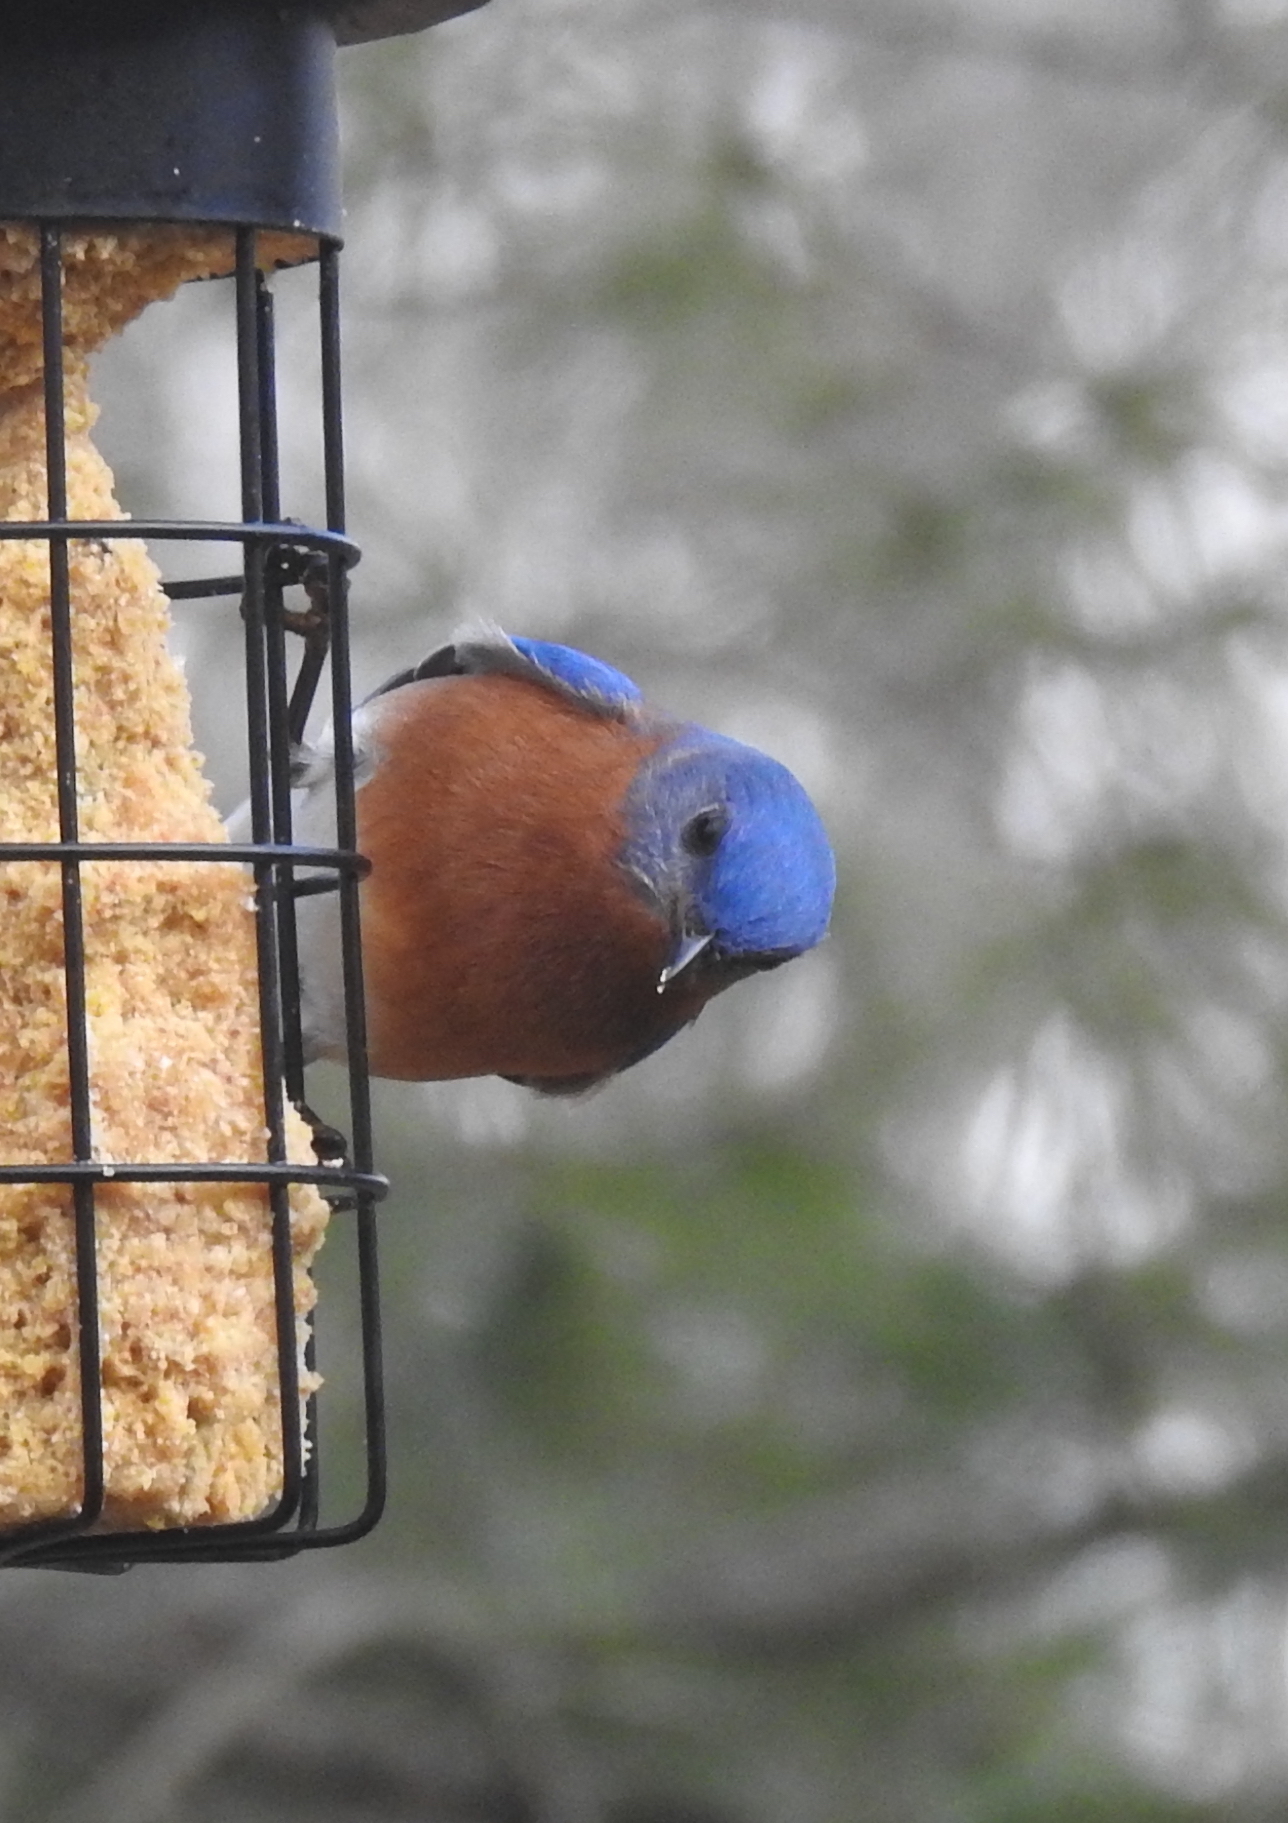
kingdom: Animalia
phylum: Chordata
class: Aves
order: Passeriformes
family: Turdidae
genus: Sialia
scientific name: Sialia sialis
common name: Eastern bluebird
